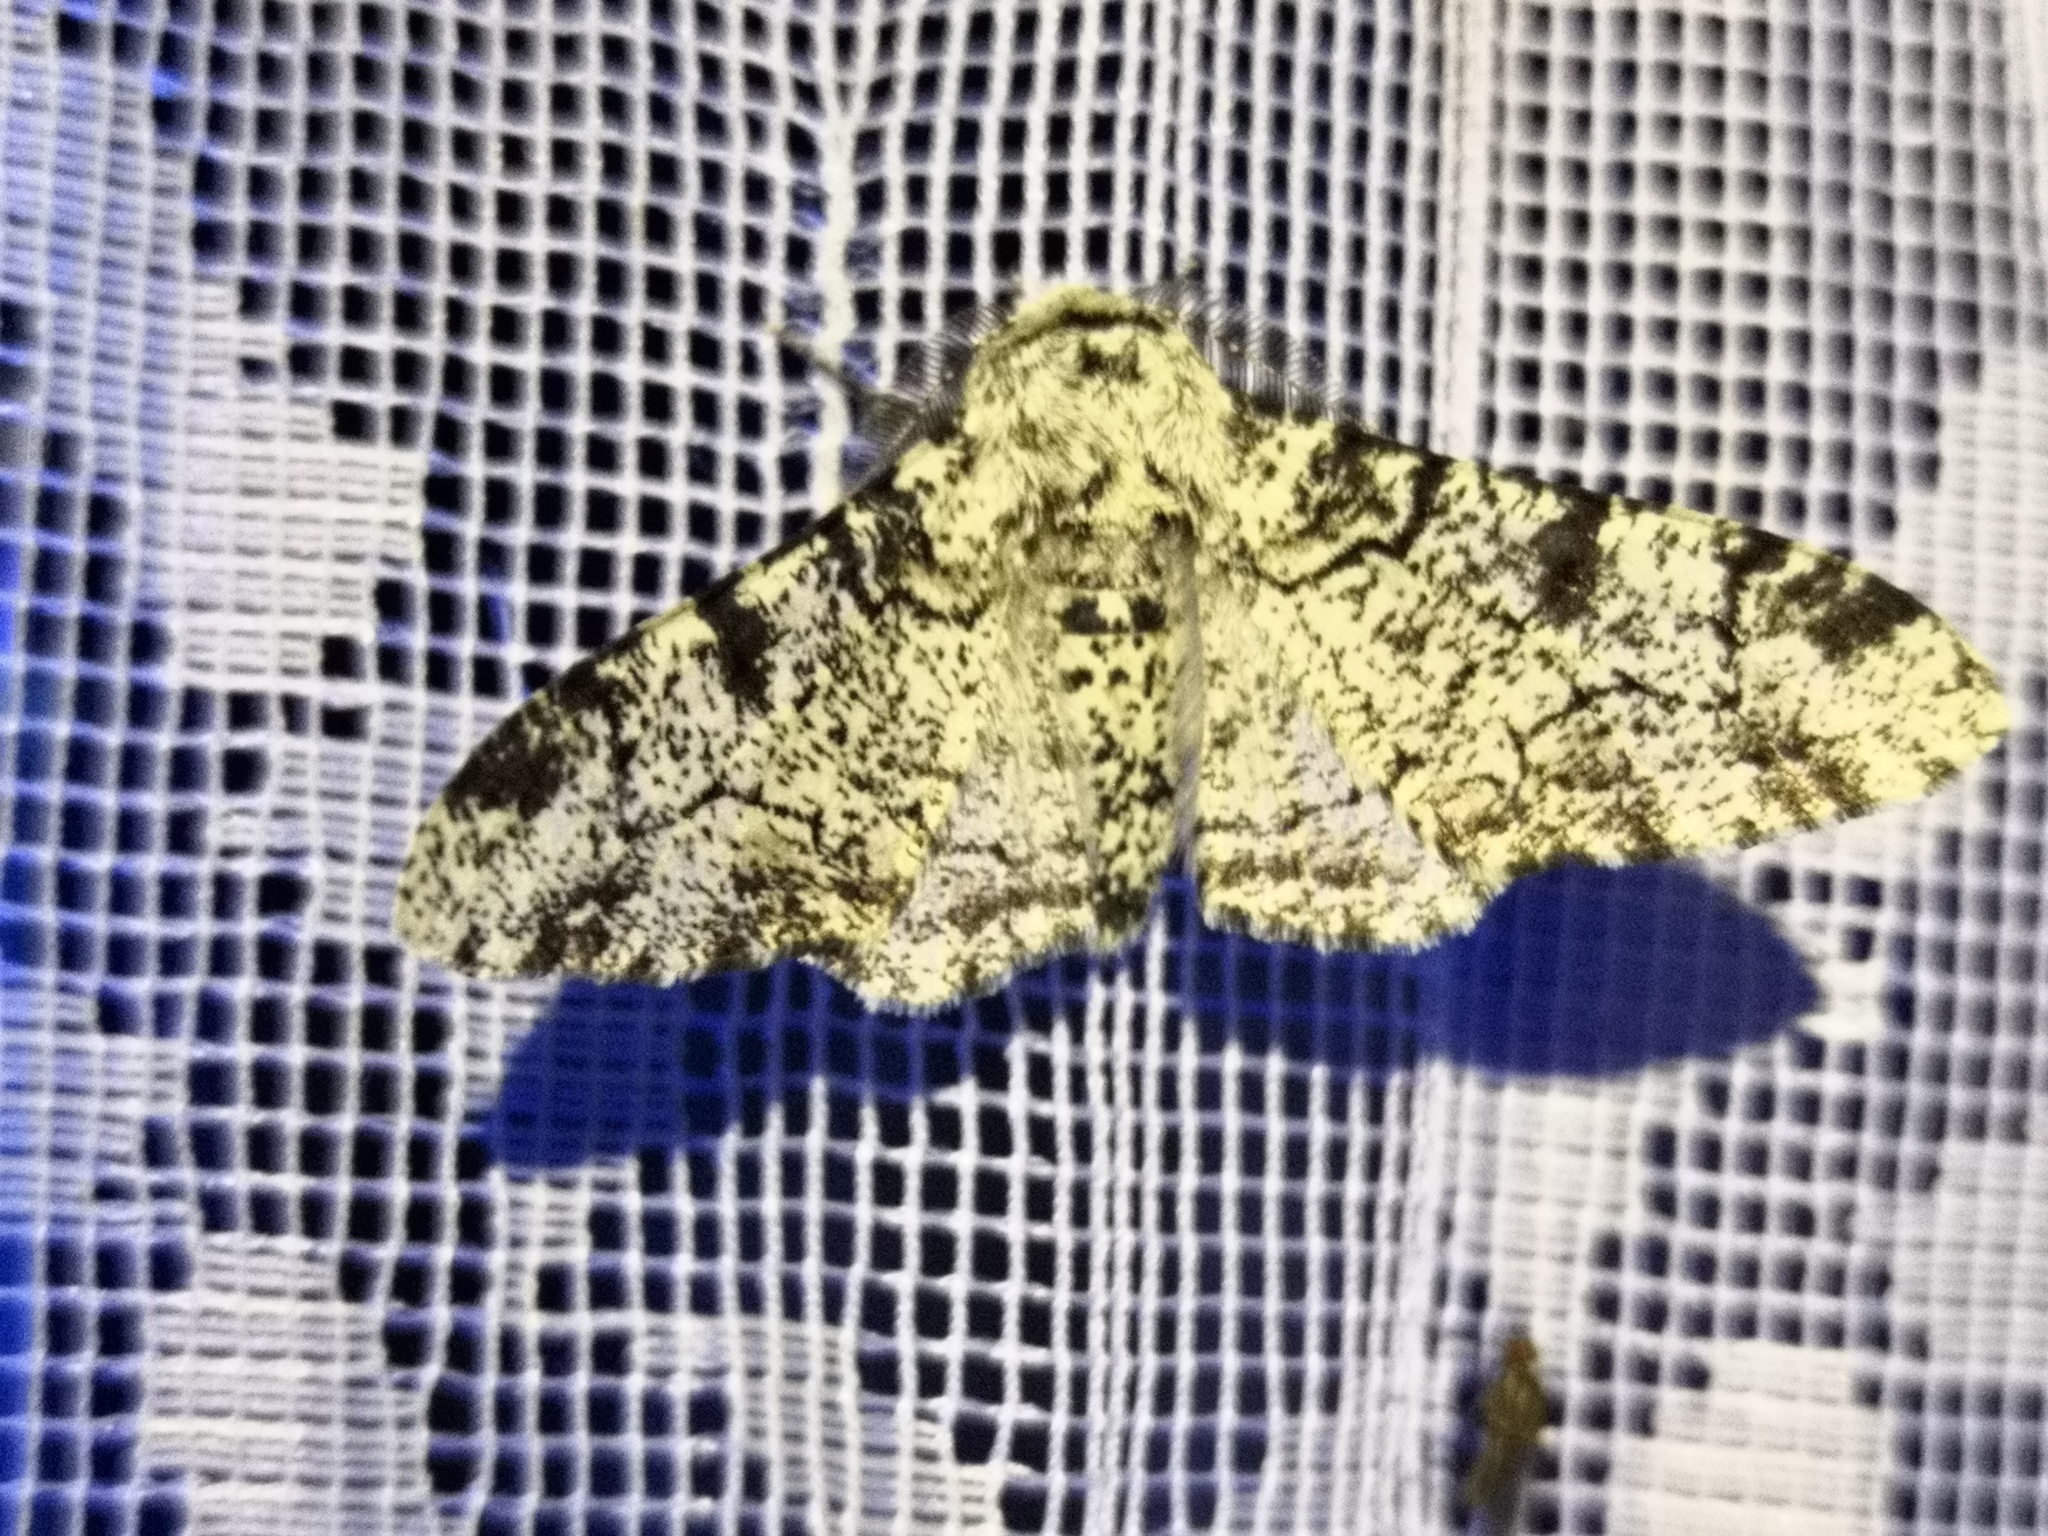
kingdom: Animalia
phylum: Arthropoda
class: Insecta
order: Lepidoptera
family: Geometridae
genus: Biston
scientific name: Biston betularia
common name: Peppered moth
